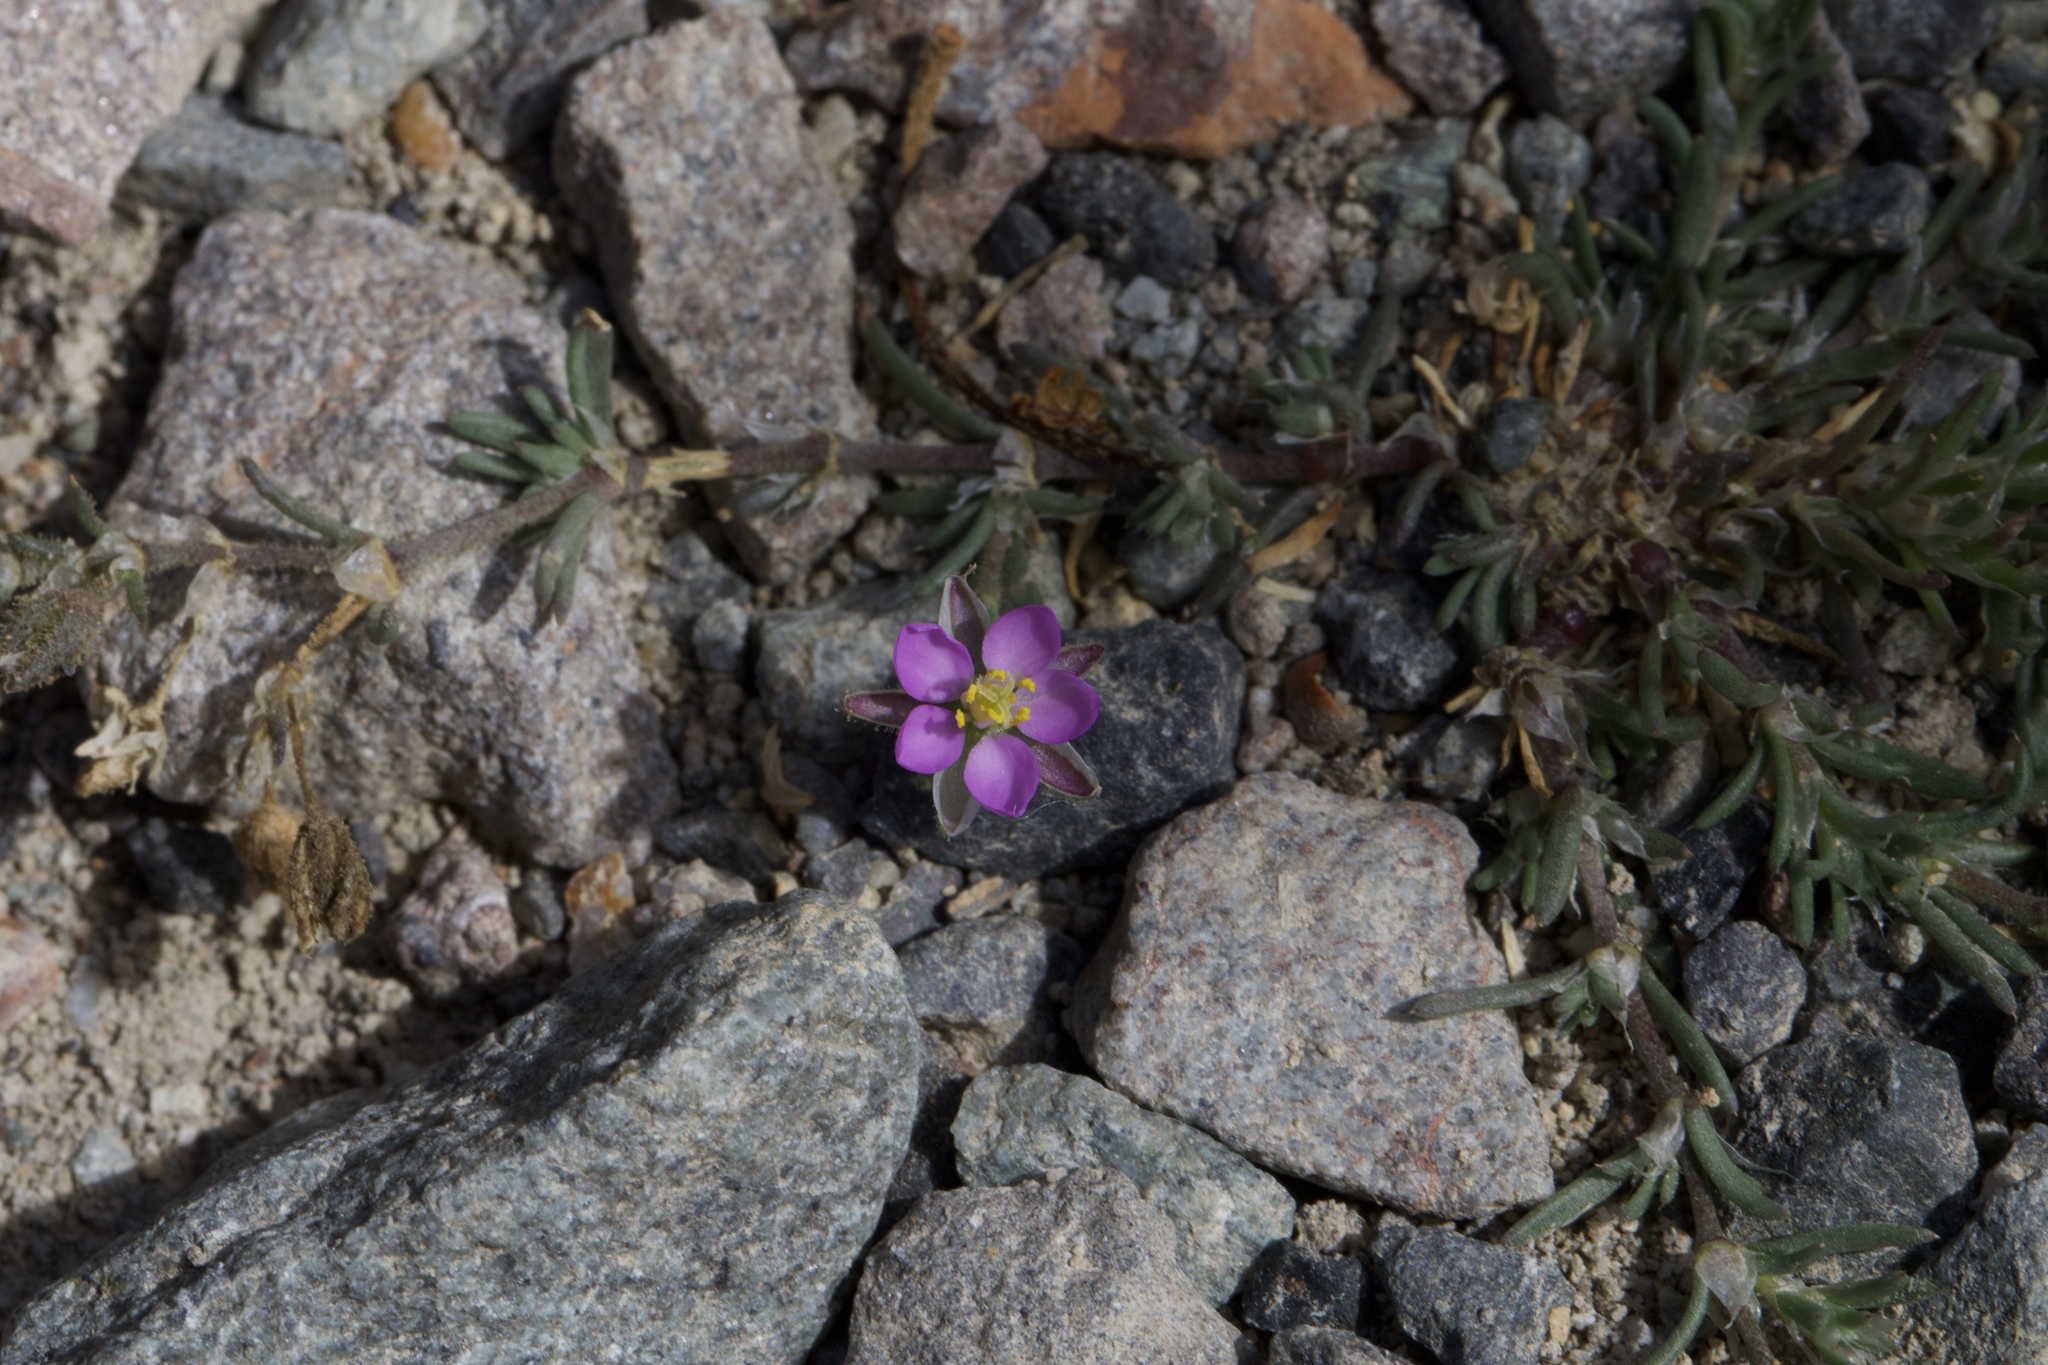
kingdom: Plantae
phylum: Tracheophyta
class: Magnoliopsida
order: Caryophyllales
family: Caryophyllaceae
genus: Spergularia
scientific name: Spergularia rubra
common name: Red sand-spurrey
